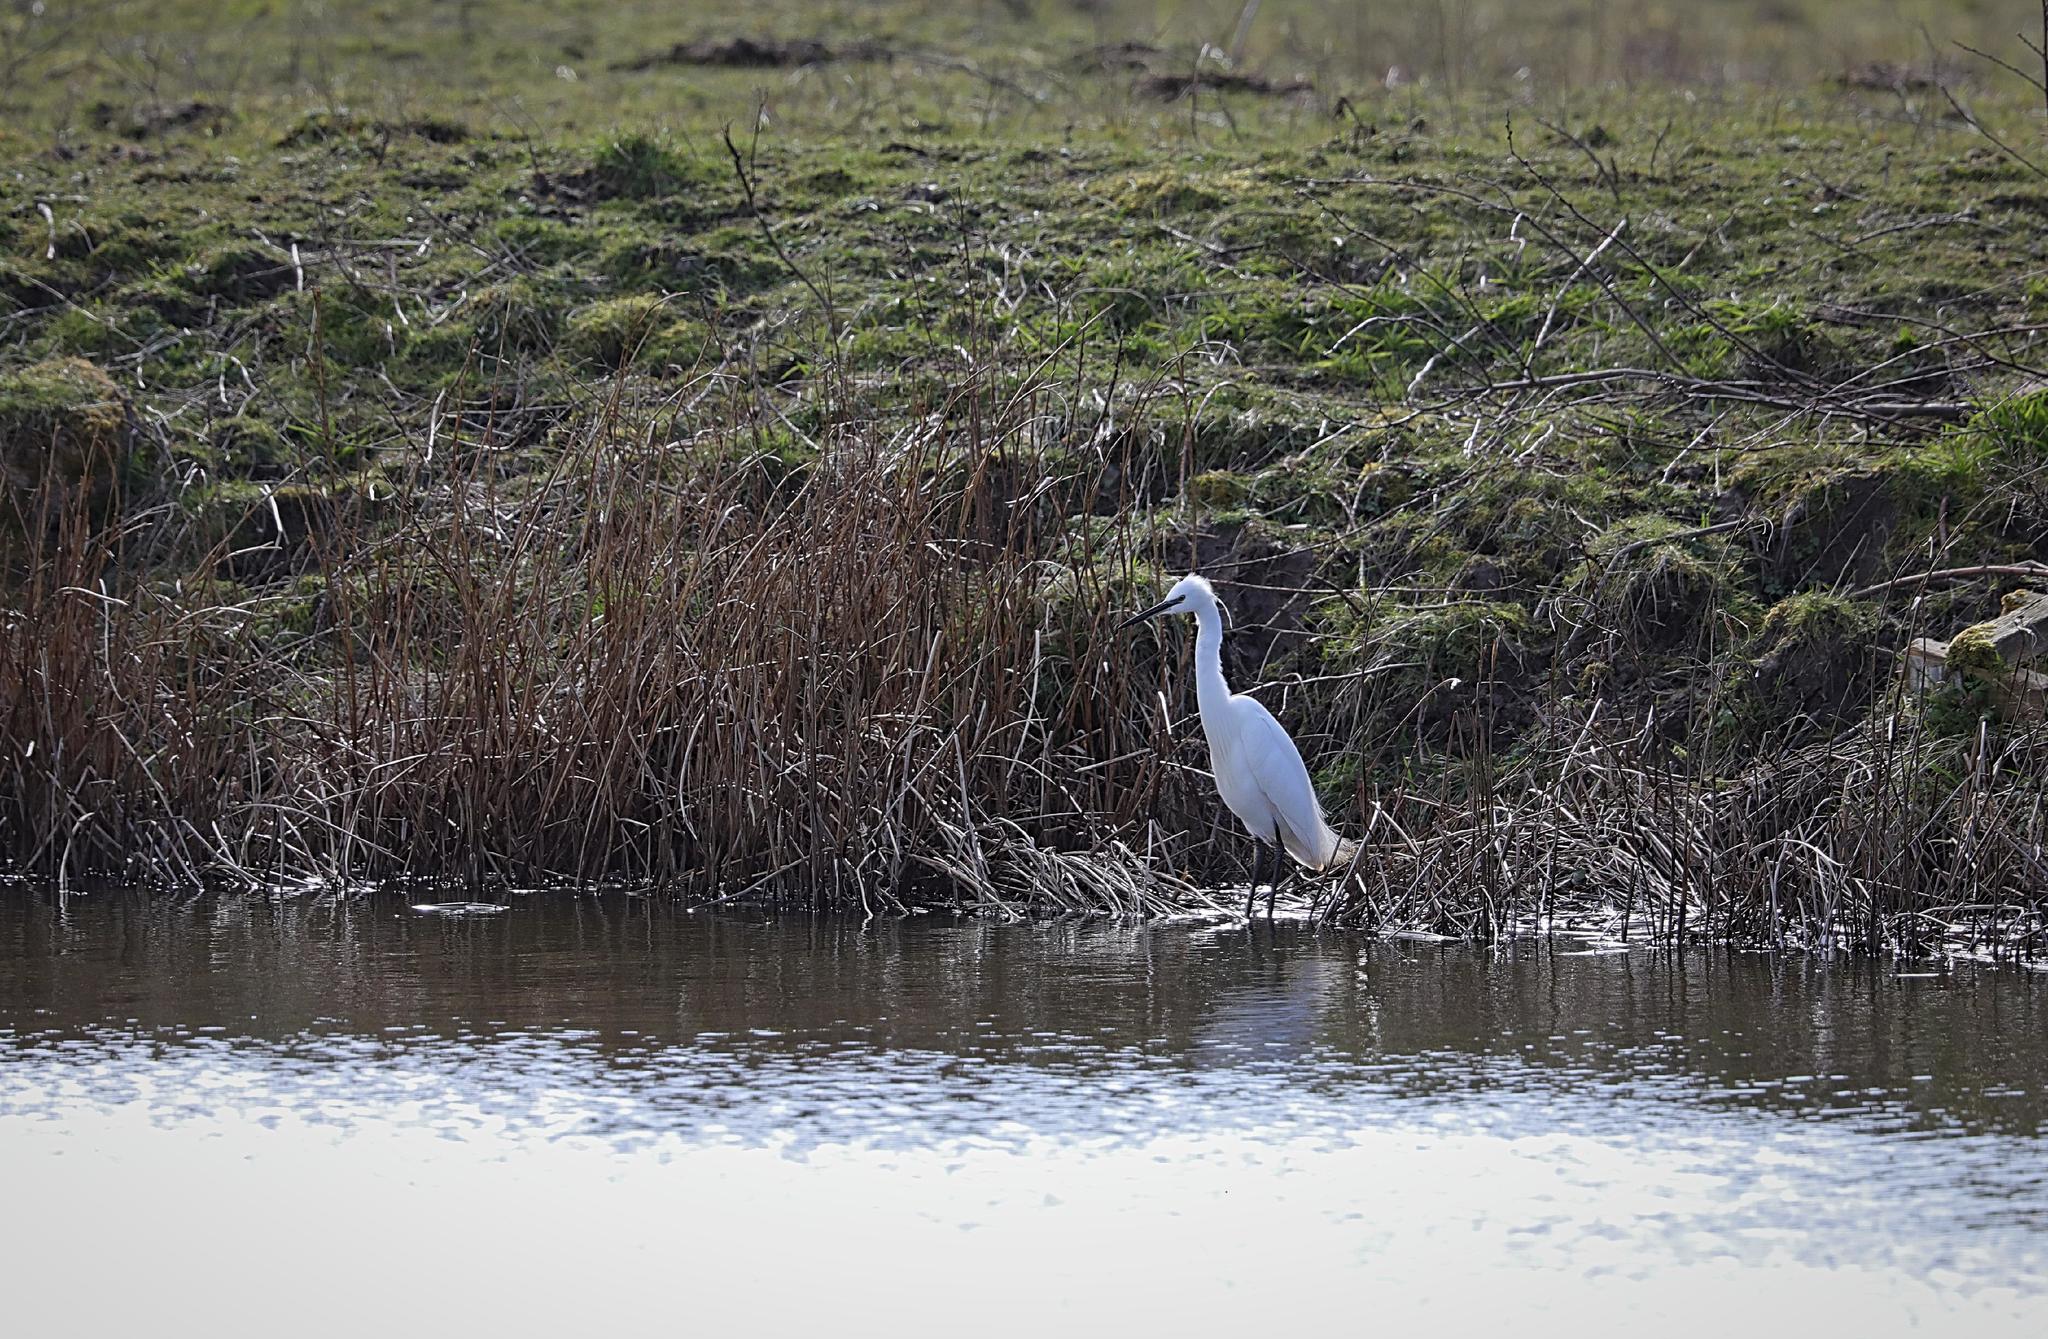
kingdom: Animalia
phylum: Chordata
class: Aves
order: Pelecaniformes
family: Ardeidae
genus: Egretta
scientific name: Egretta garzetta
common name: Little egret
